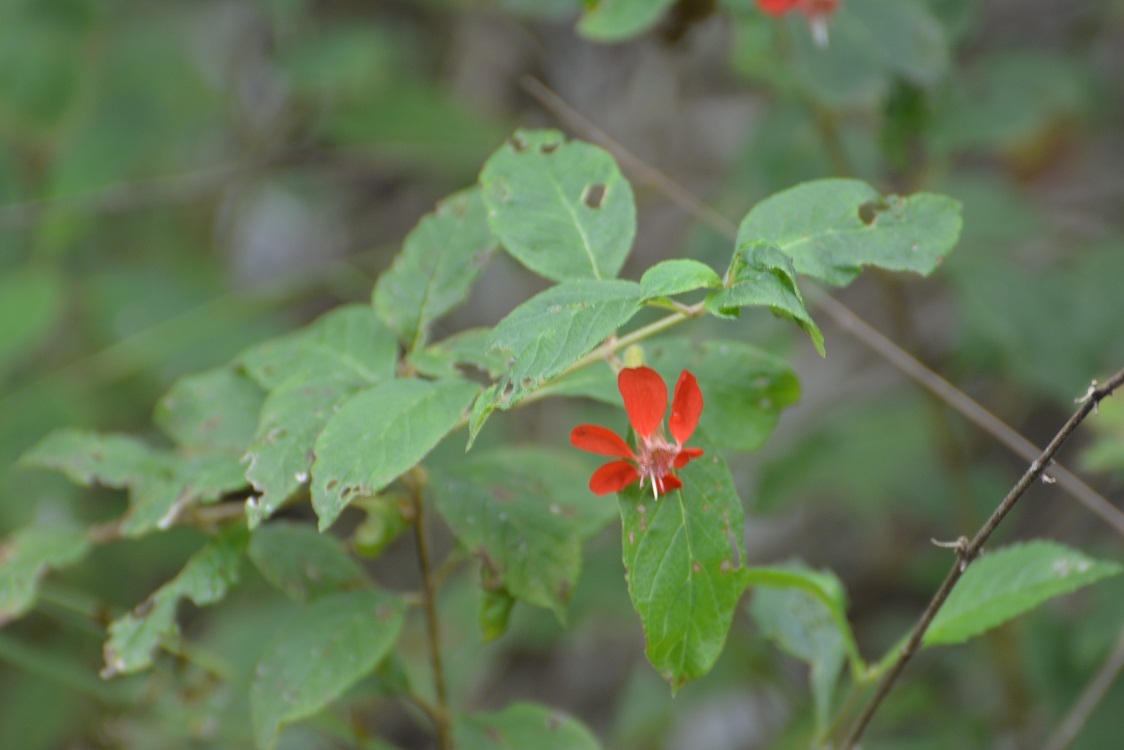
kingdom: Plantae
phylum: Tracheophyta
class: Magnoliopsida
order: Myrtales
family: Lythraceae
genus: Cuphea
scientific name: Cuphea intermedia
